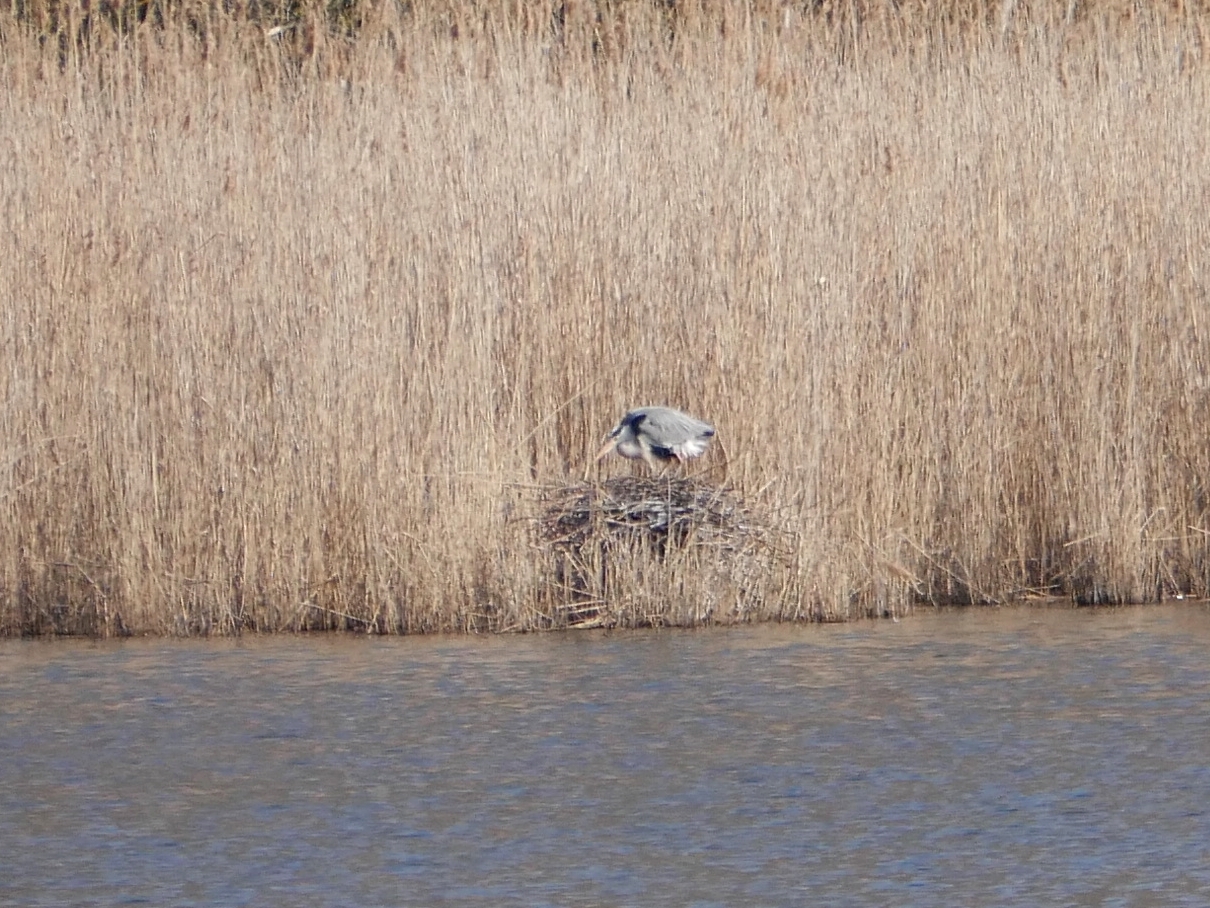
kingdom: Animalia
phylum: Chordata
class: Aves
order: Pelecaniformes
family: Ardeidae
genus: Ardea
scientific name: Ardea cinerea
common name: Grey heron
